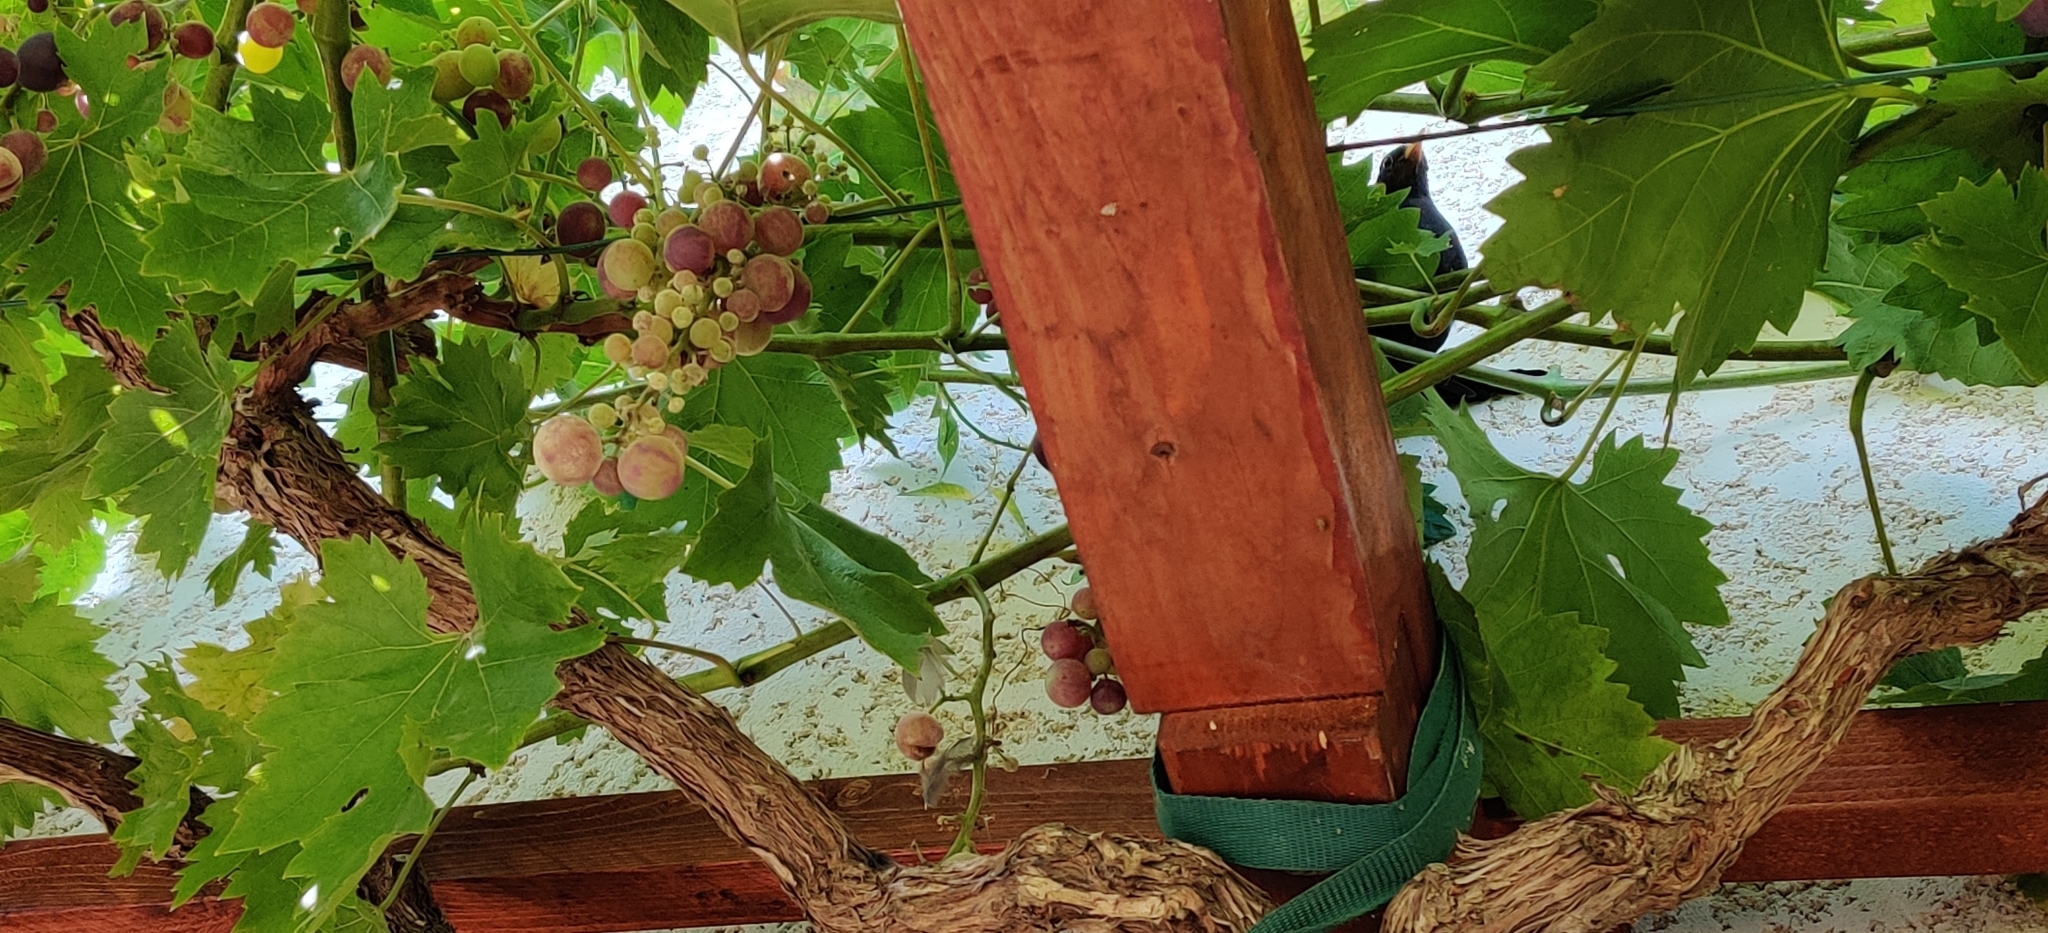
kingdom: Animalia
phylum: Chordata
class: Aves
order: Passeriformes
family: Turdidae
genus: Turdus
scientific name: Turdus merula
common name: Common blackbird
